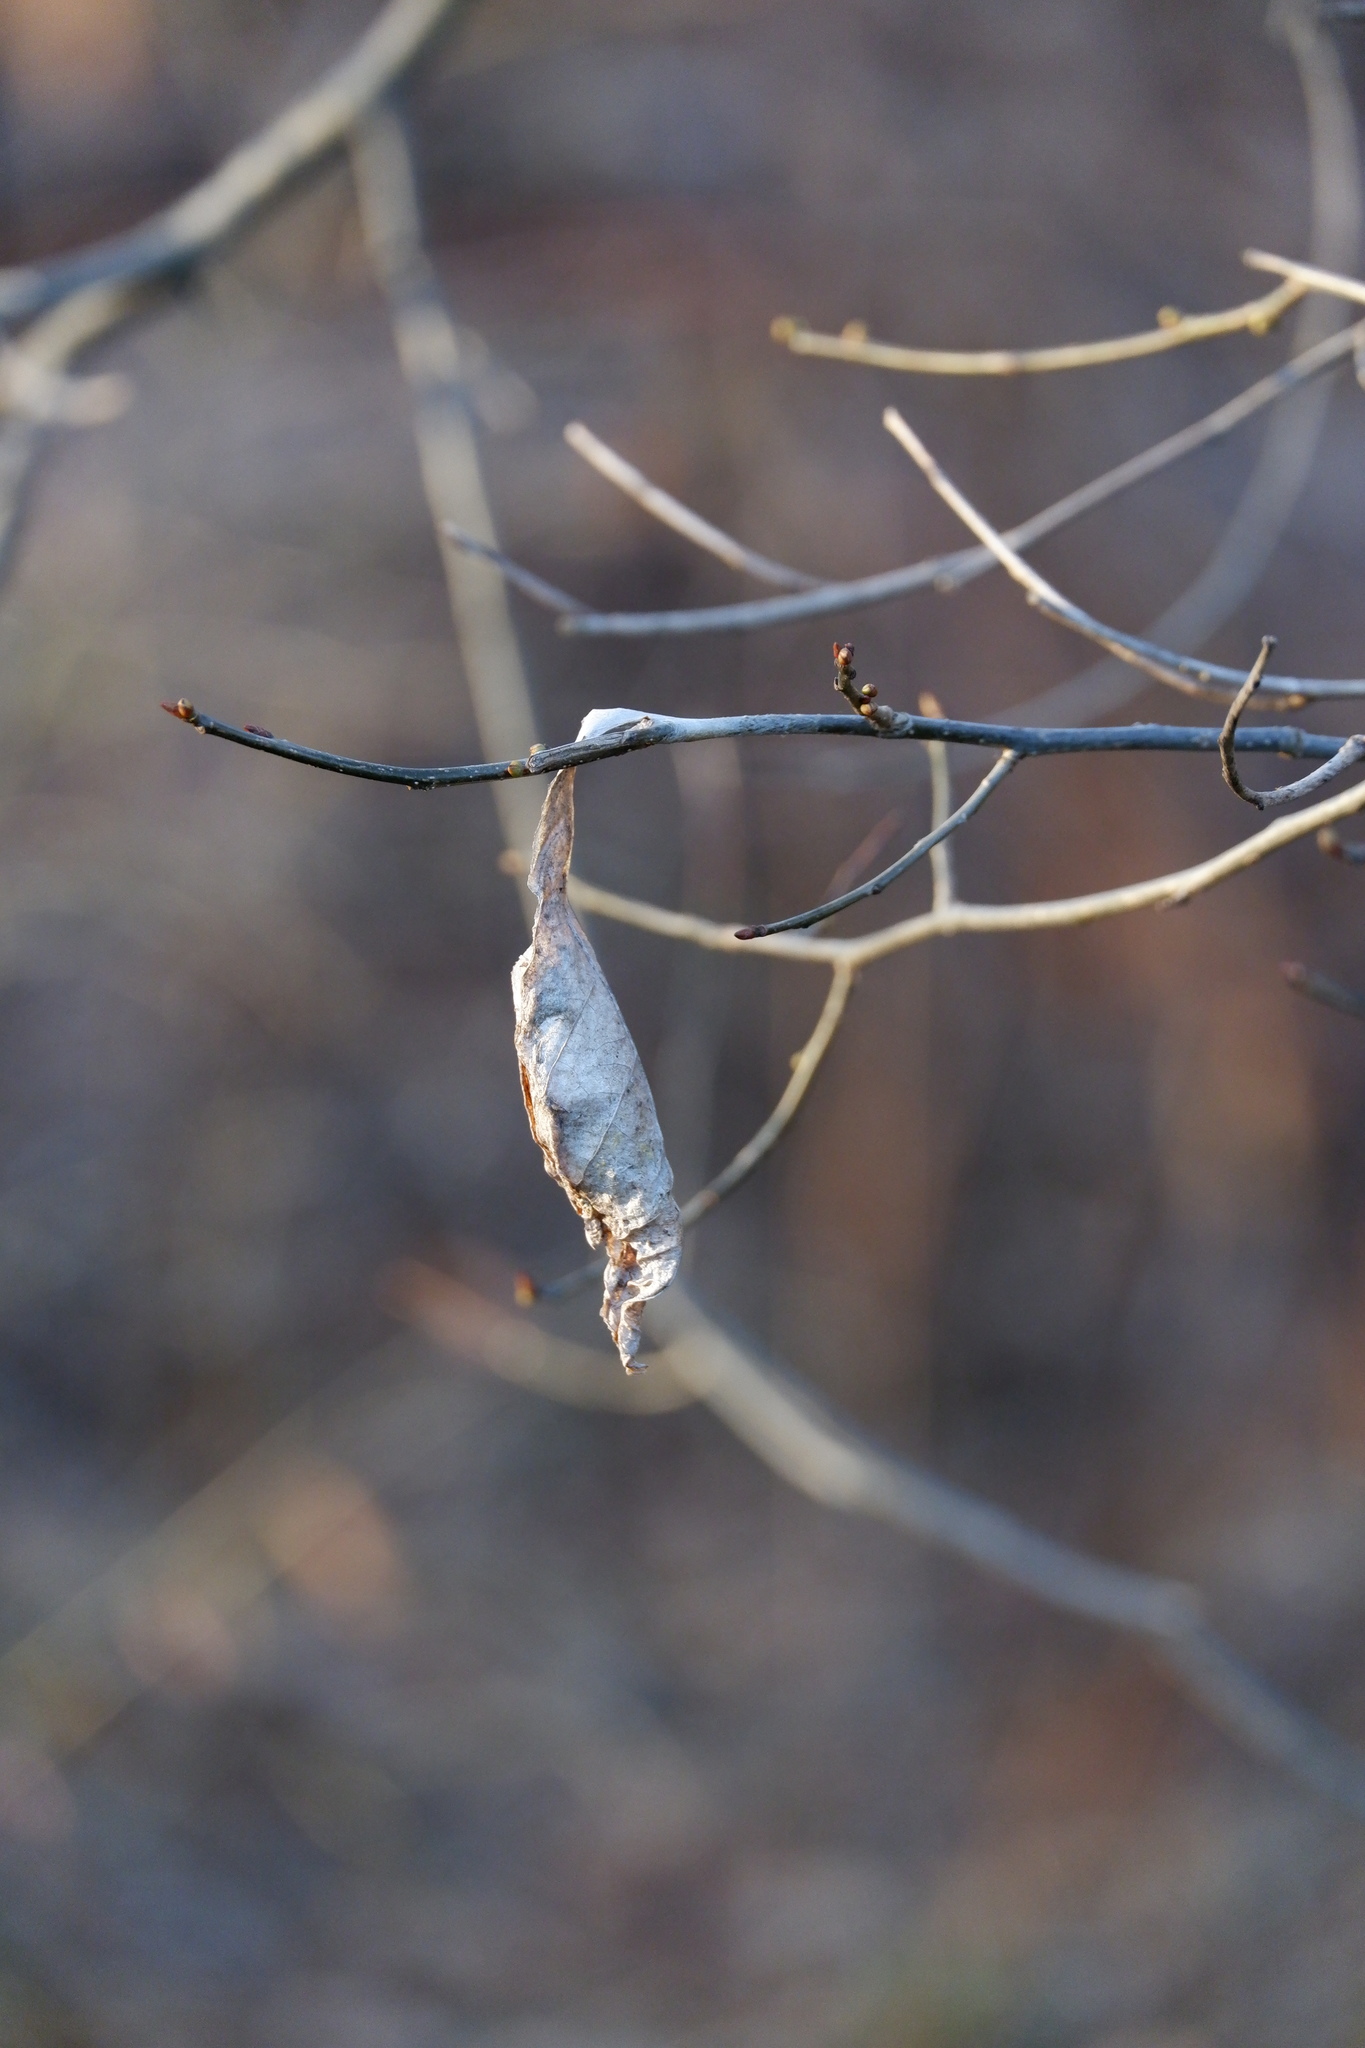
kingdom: Animalia
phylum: Arthropoda
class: Insecta
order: Lepidoptera
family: Saturniidae
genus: Callosamia
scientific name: Callosamia promethea
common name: Promethea silkmoth
